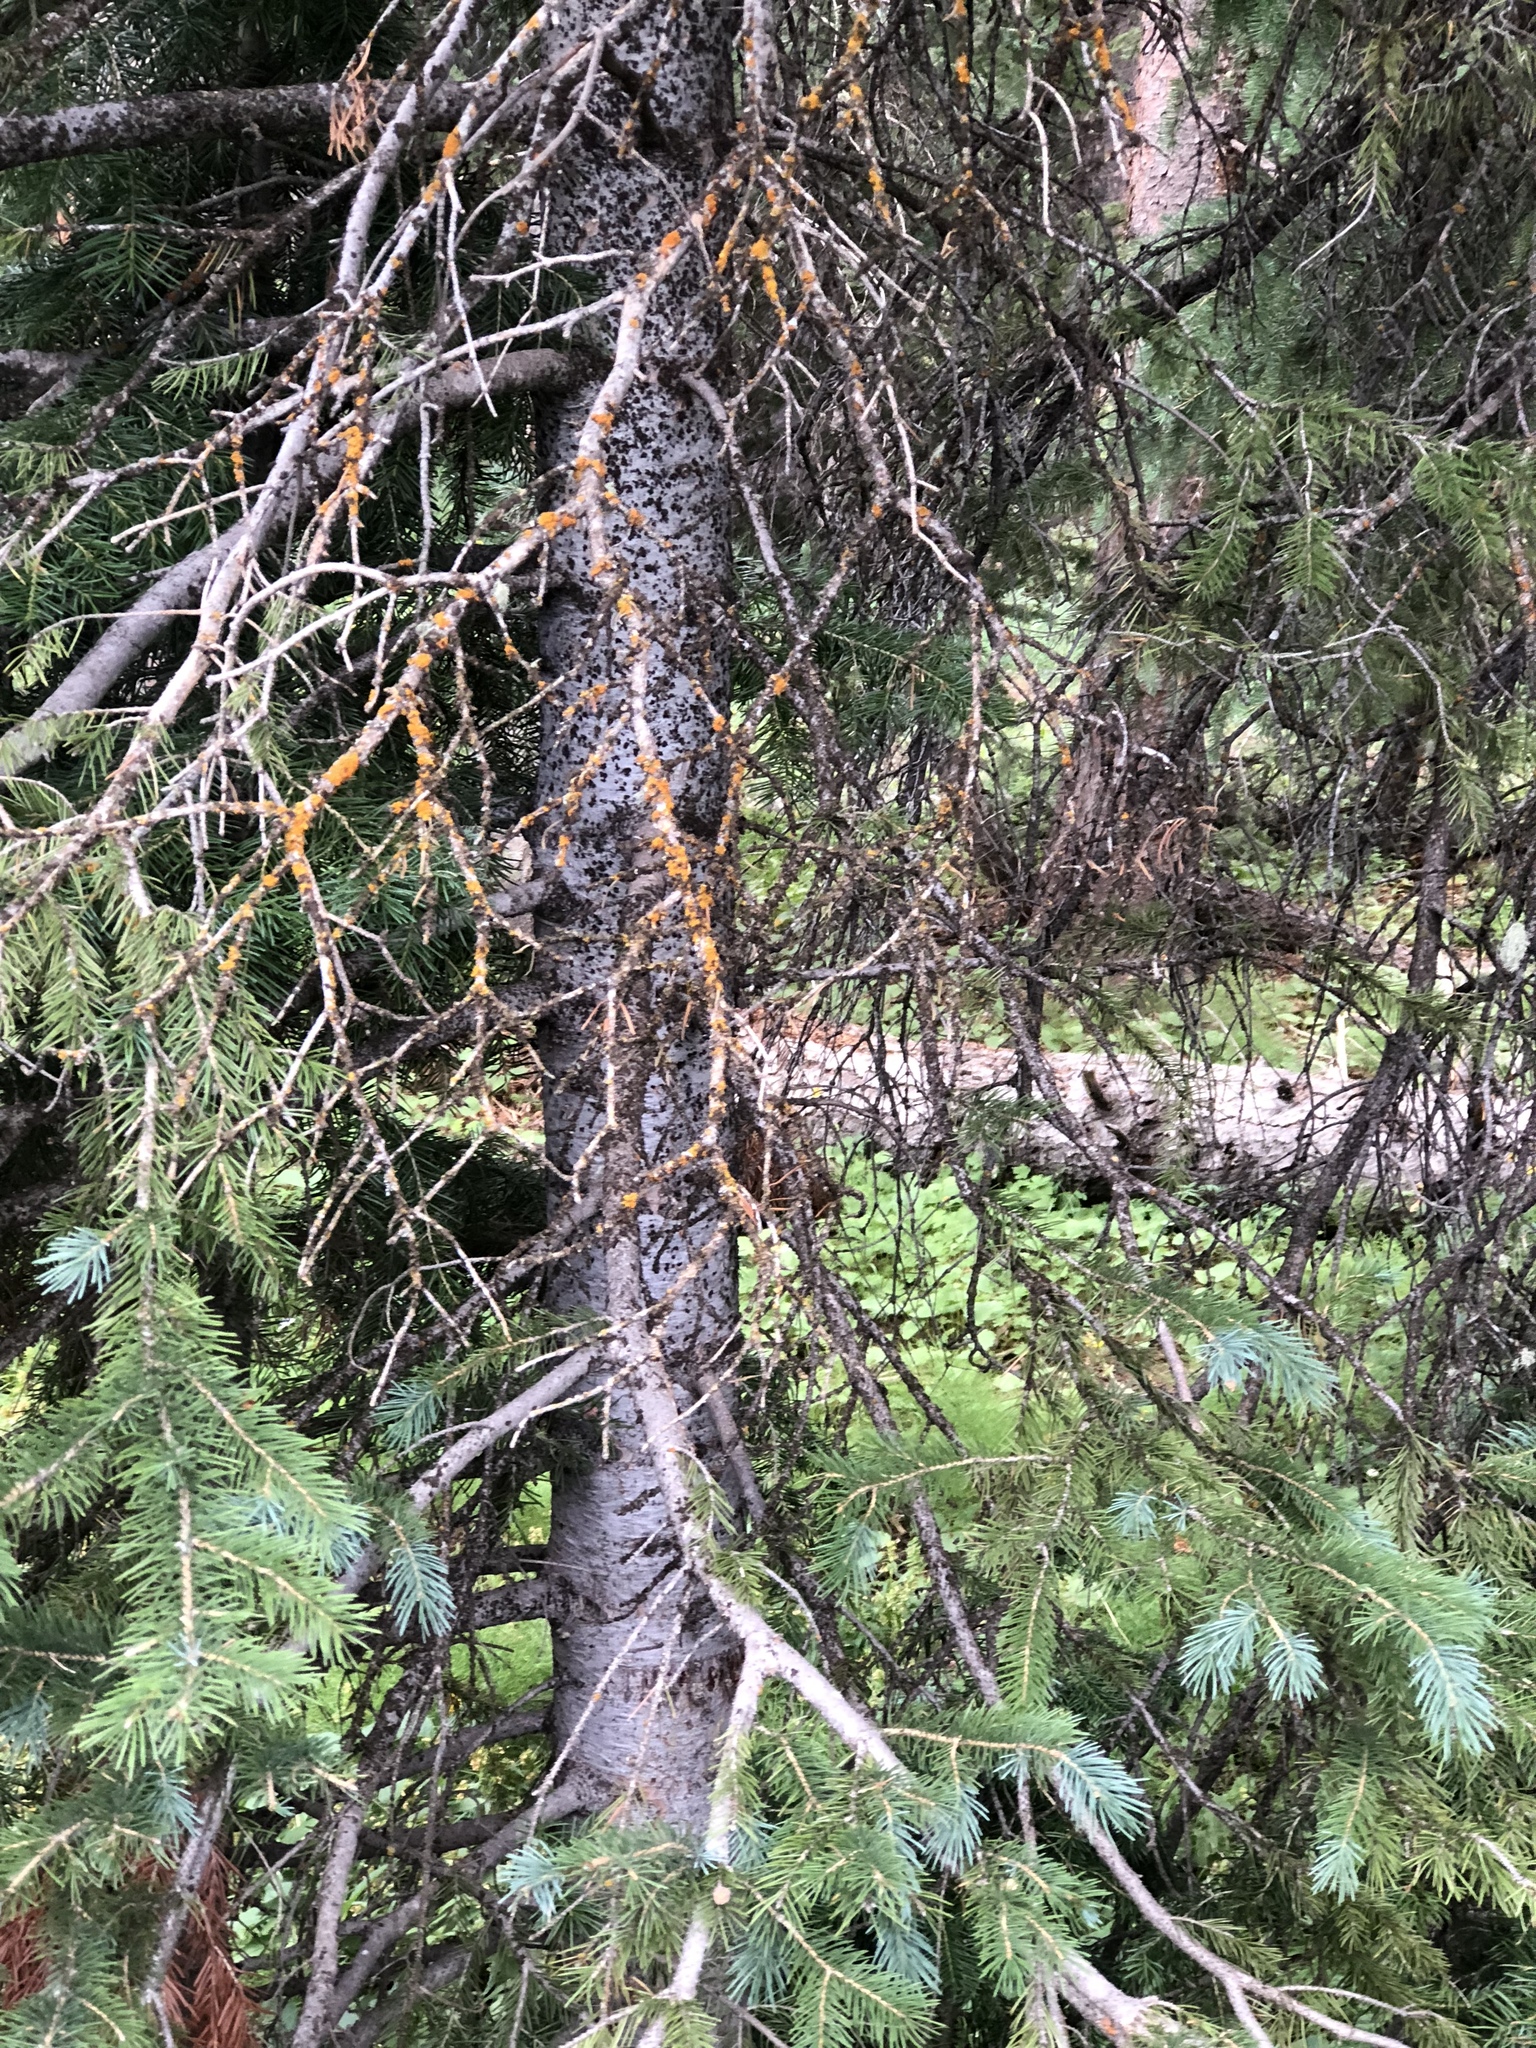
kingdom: Plantae
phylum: Tracheophyta
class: Pinopsida
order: Pinales
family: Pinaceae
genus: Abies
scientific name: Abies lasiocarpa
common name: Subalpine fir
